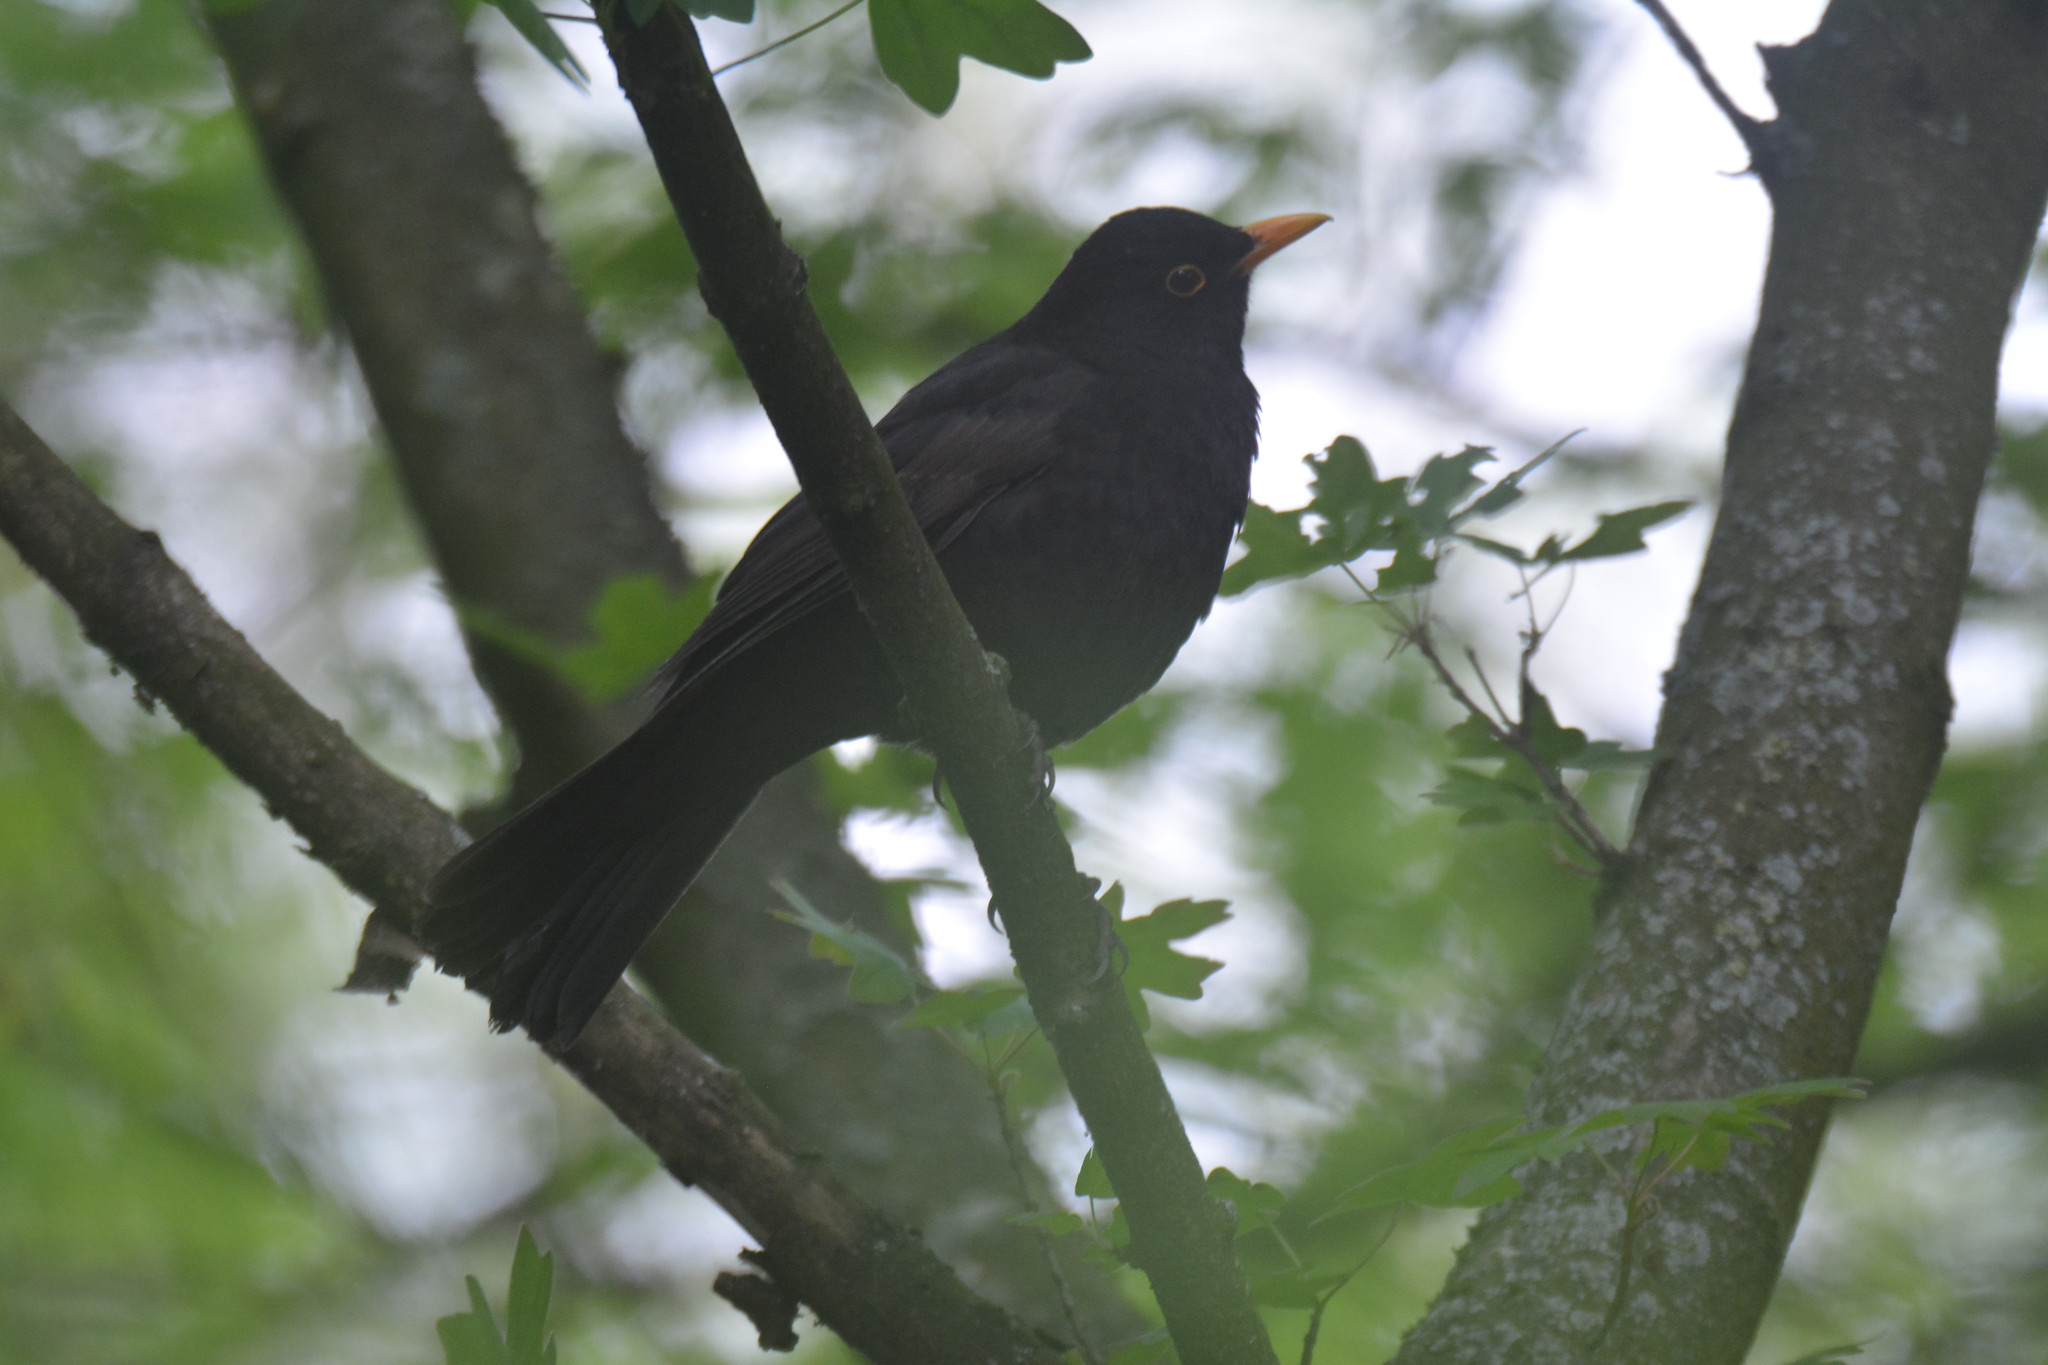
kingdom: Animalia
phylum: Chordata
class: Aves
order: Passeriformes
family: Turdidae
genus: Turdus
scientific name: Turdus merula
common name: Common blackbird
